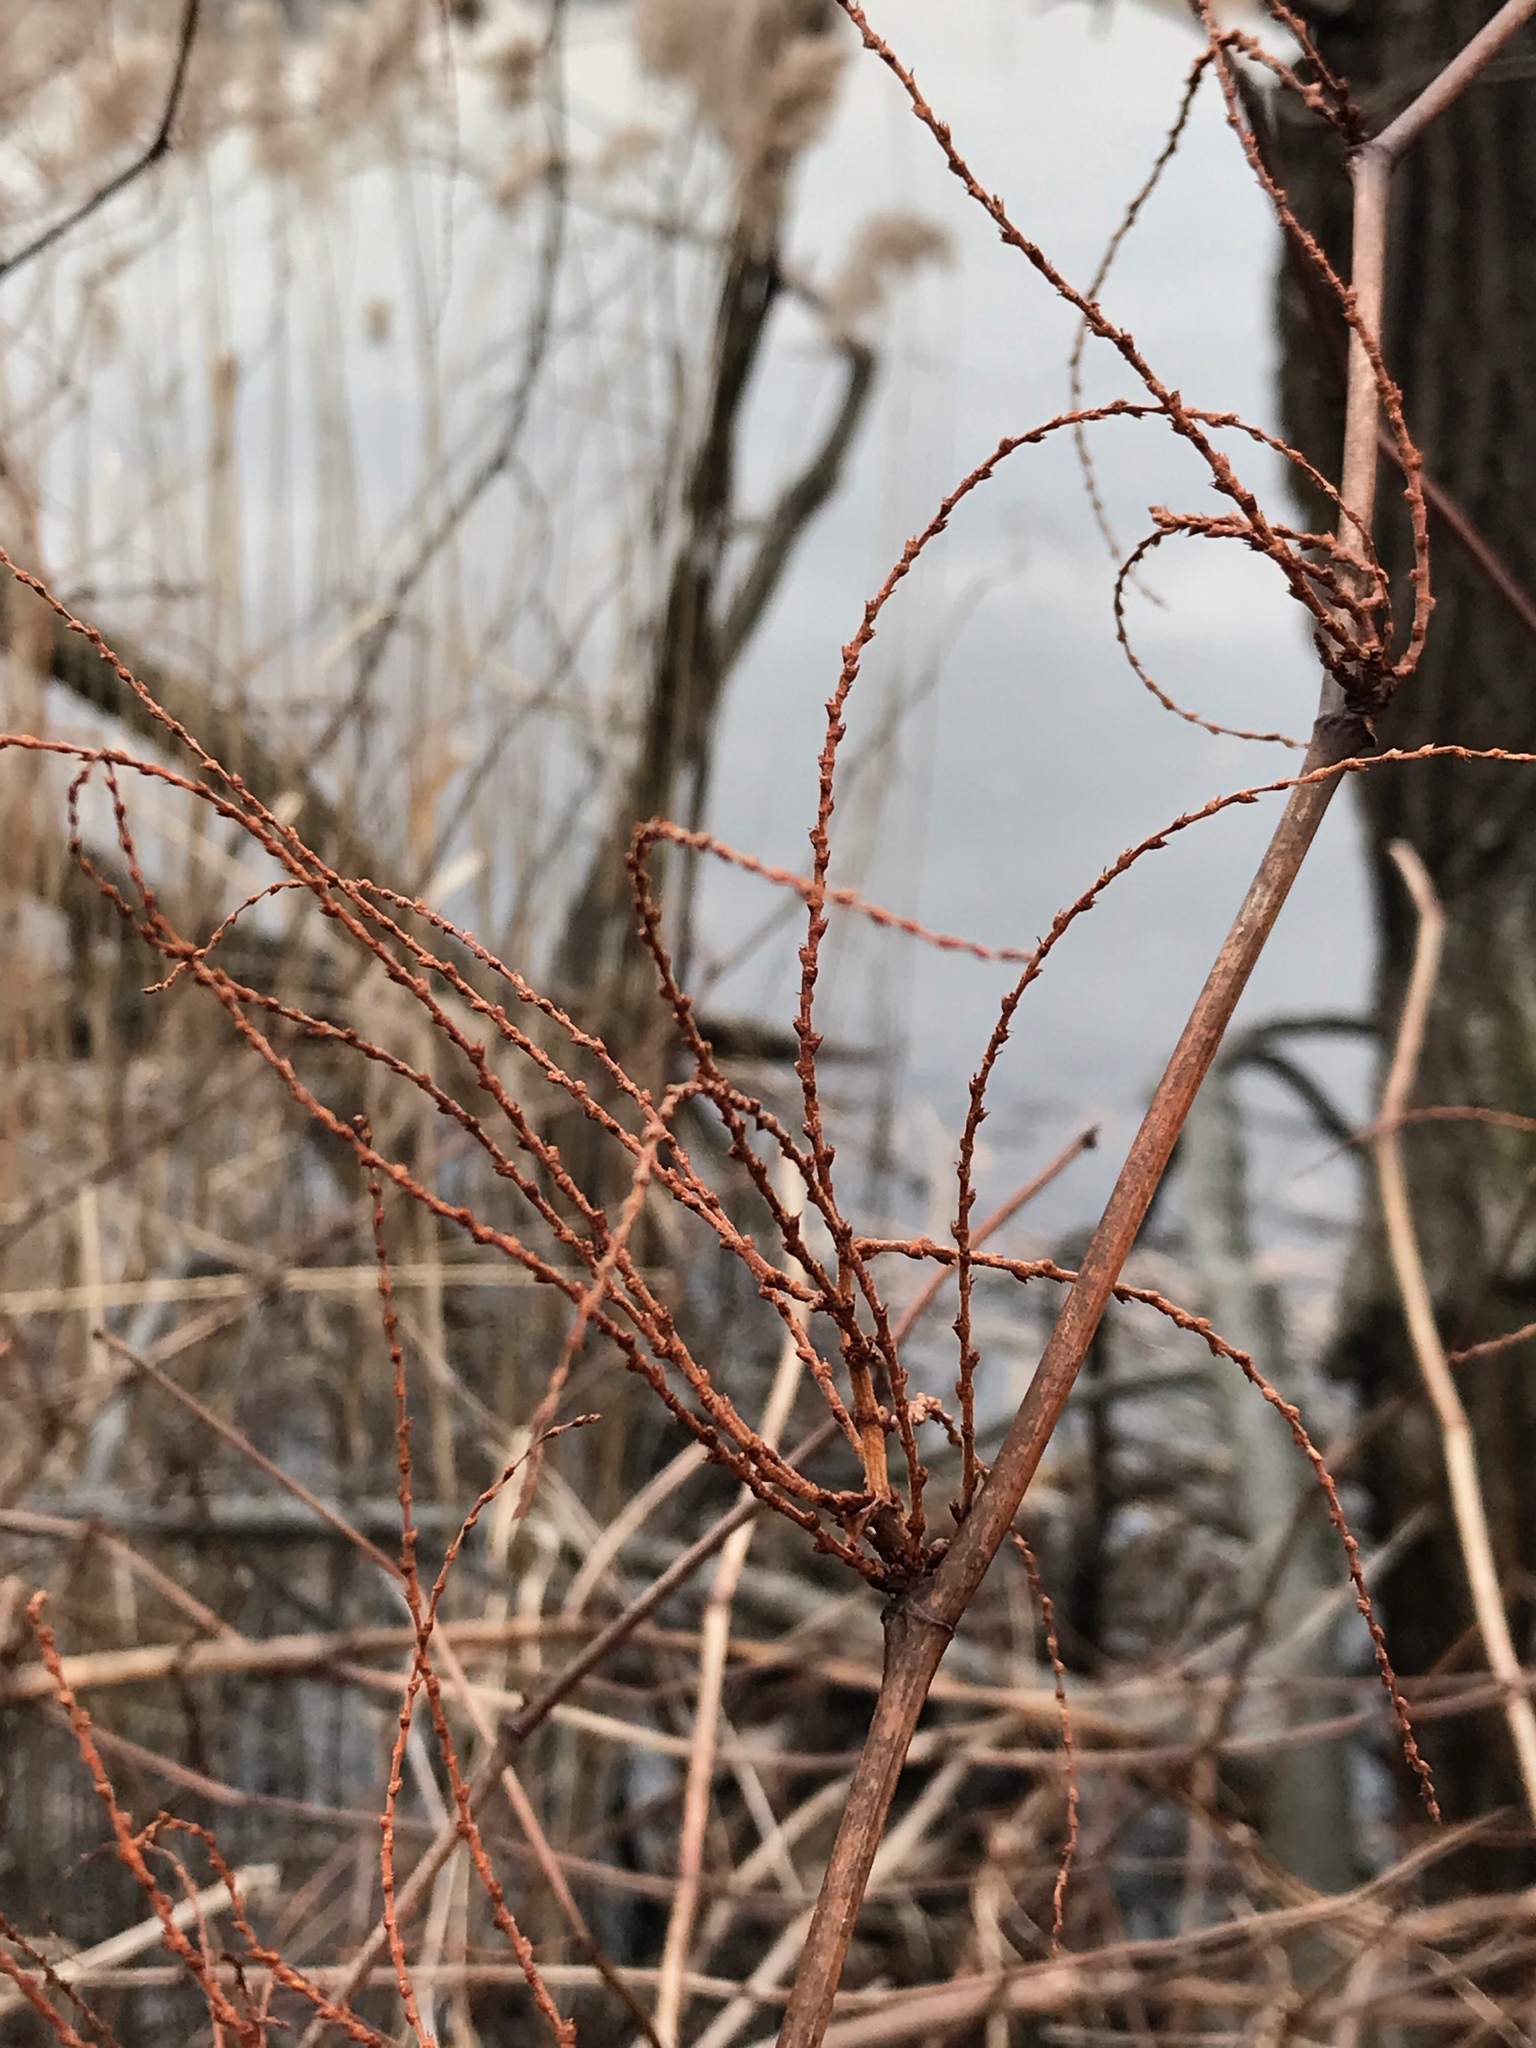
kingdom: Plantae
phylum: Tracheophyta
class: Magnoliopsida
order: Caryophyllales
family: Polygonaceae
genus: Reynoutria
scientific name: Reynoutria japonica
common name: Japanese knotweed
